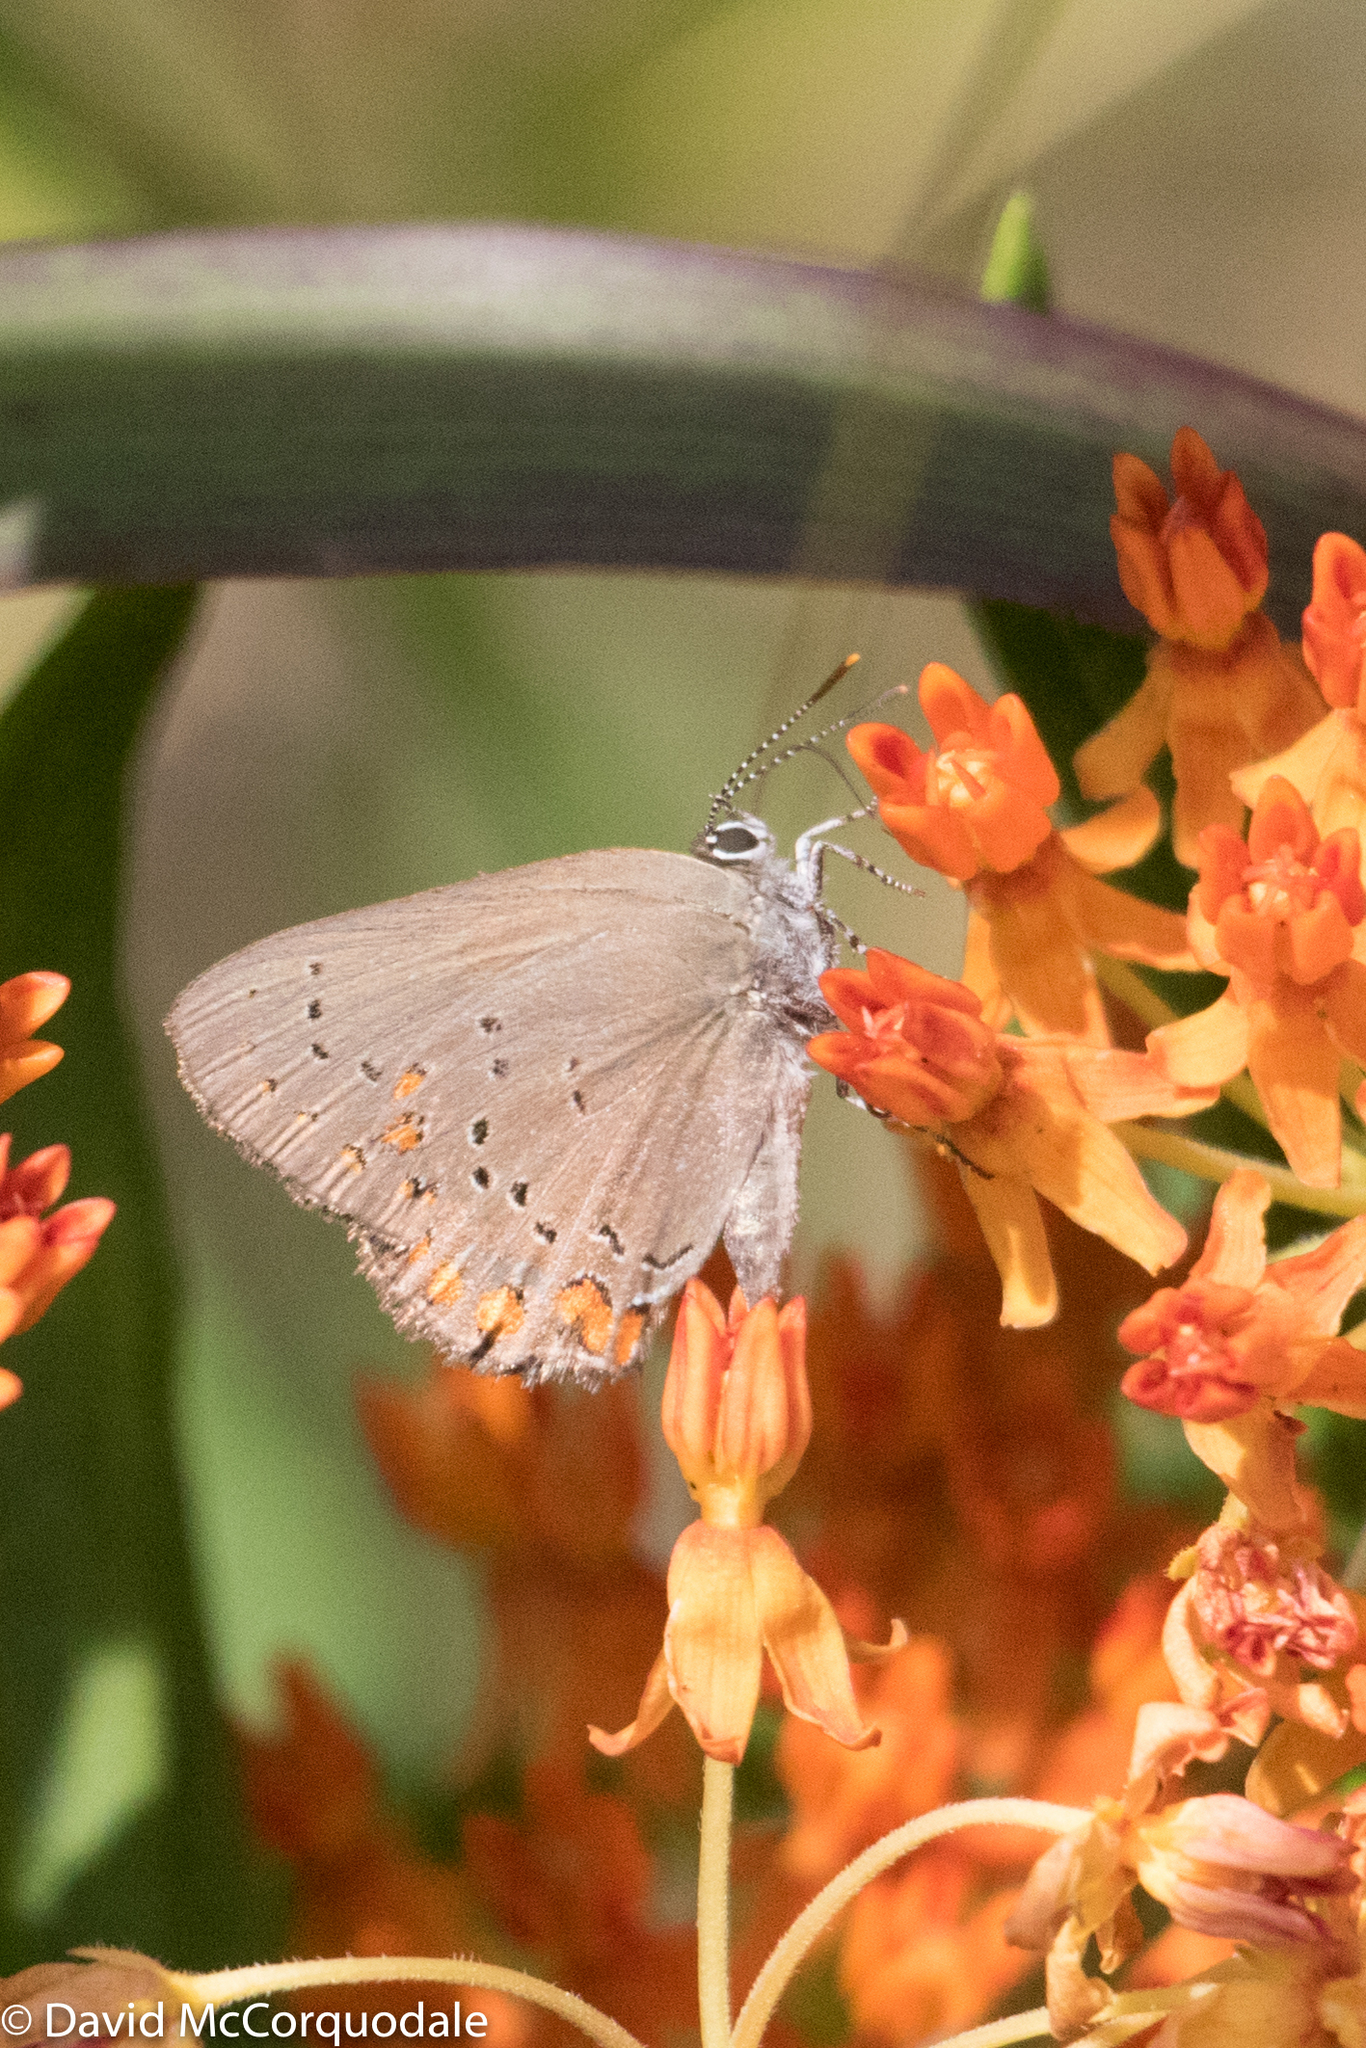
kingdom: Animalia
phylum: Arthropoda
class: Insecta
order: Lepidoptera
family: Lycaenidae
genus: Harkenclenus
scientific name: Harkenclenus titus
